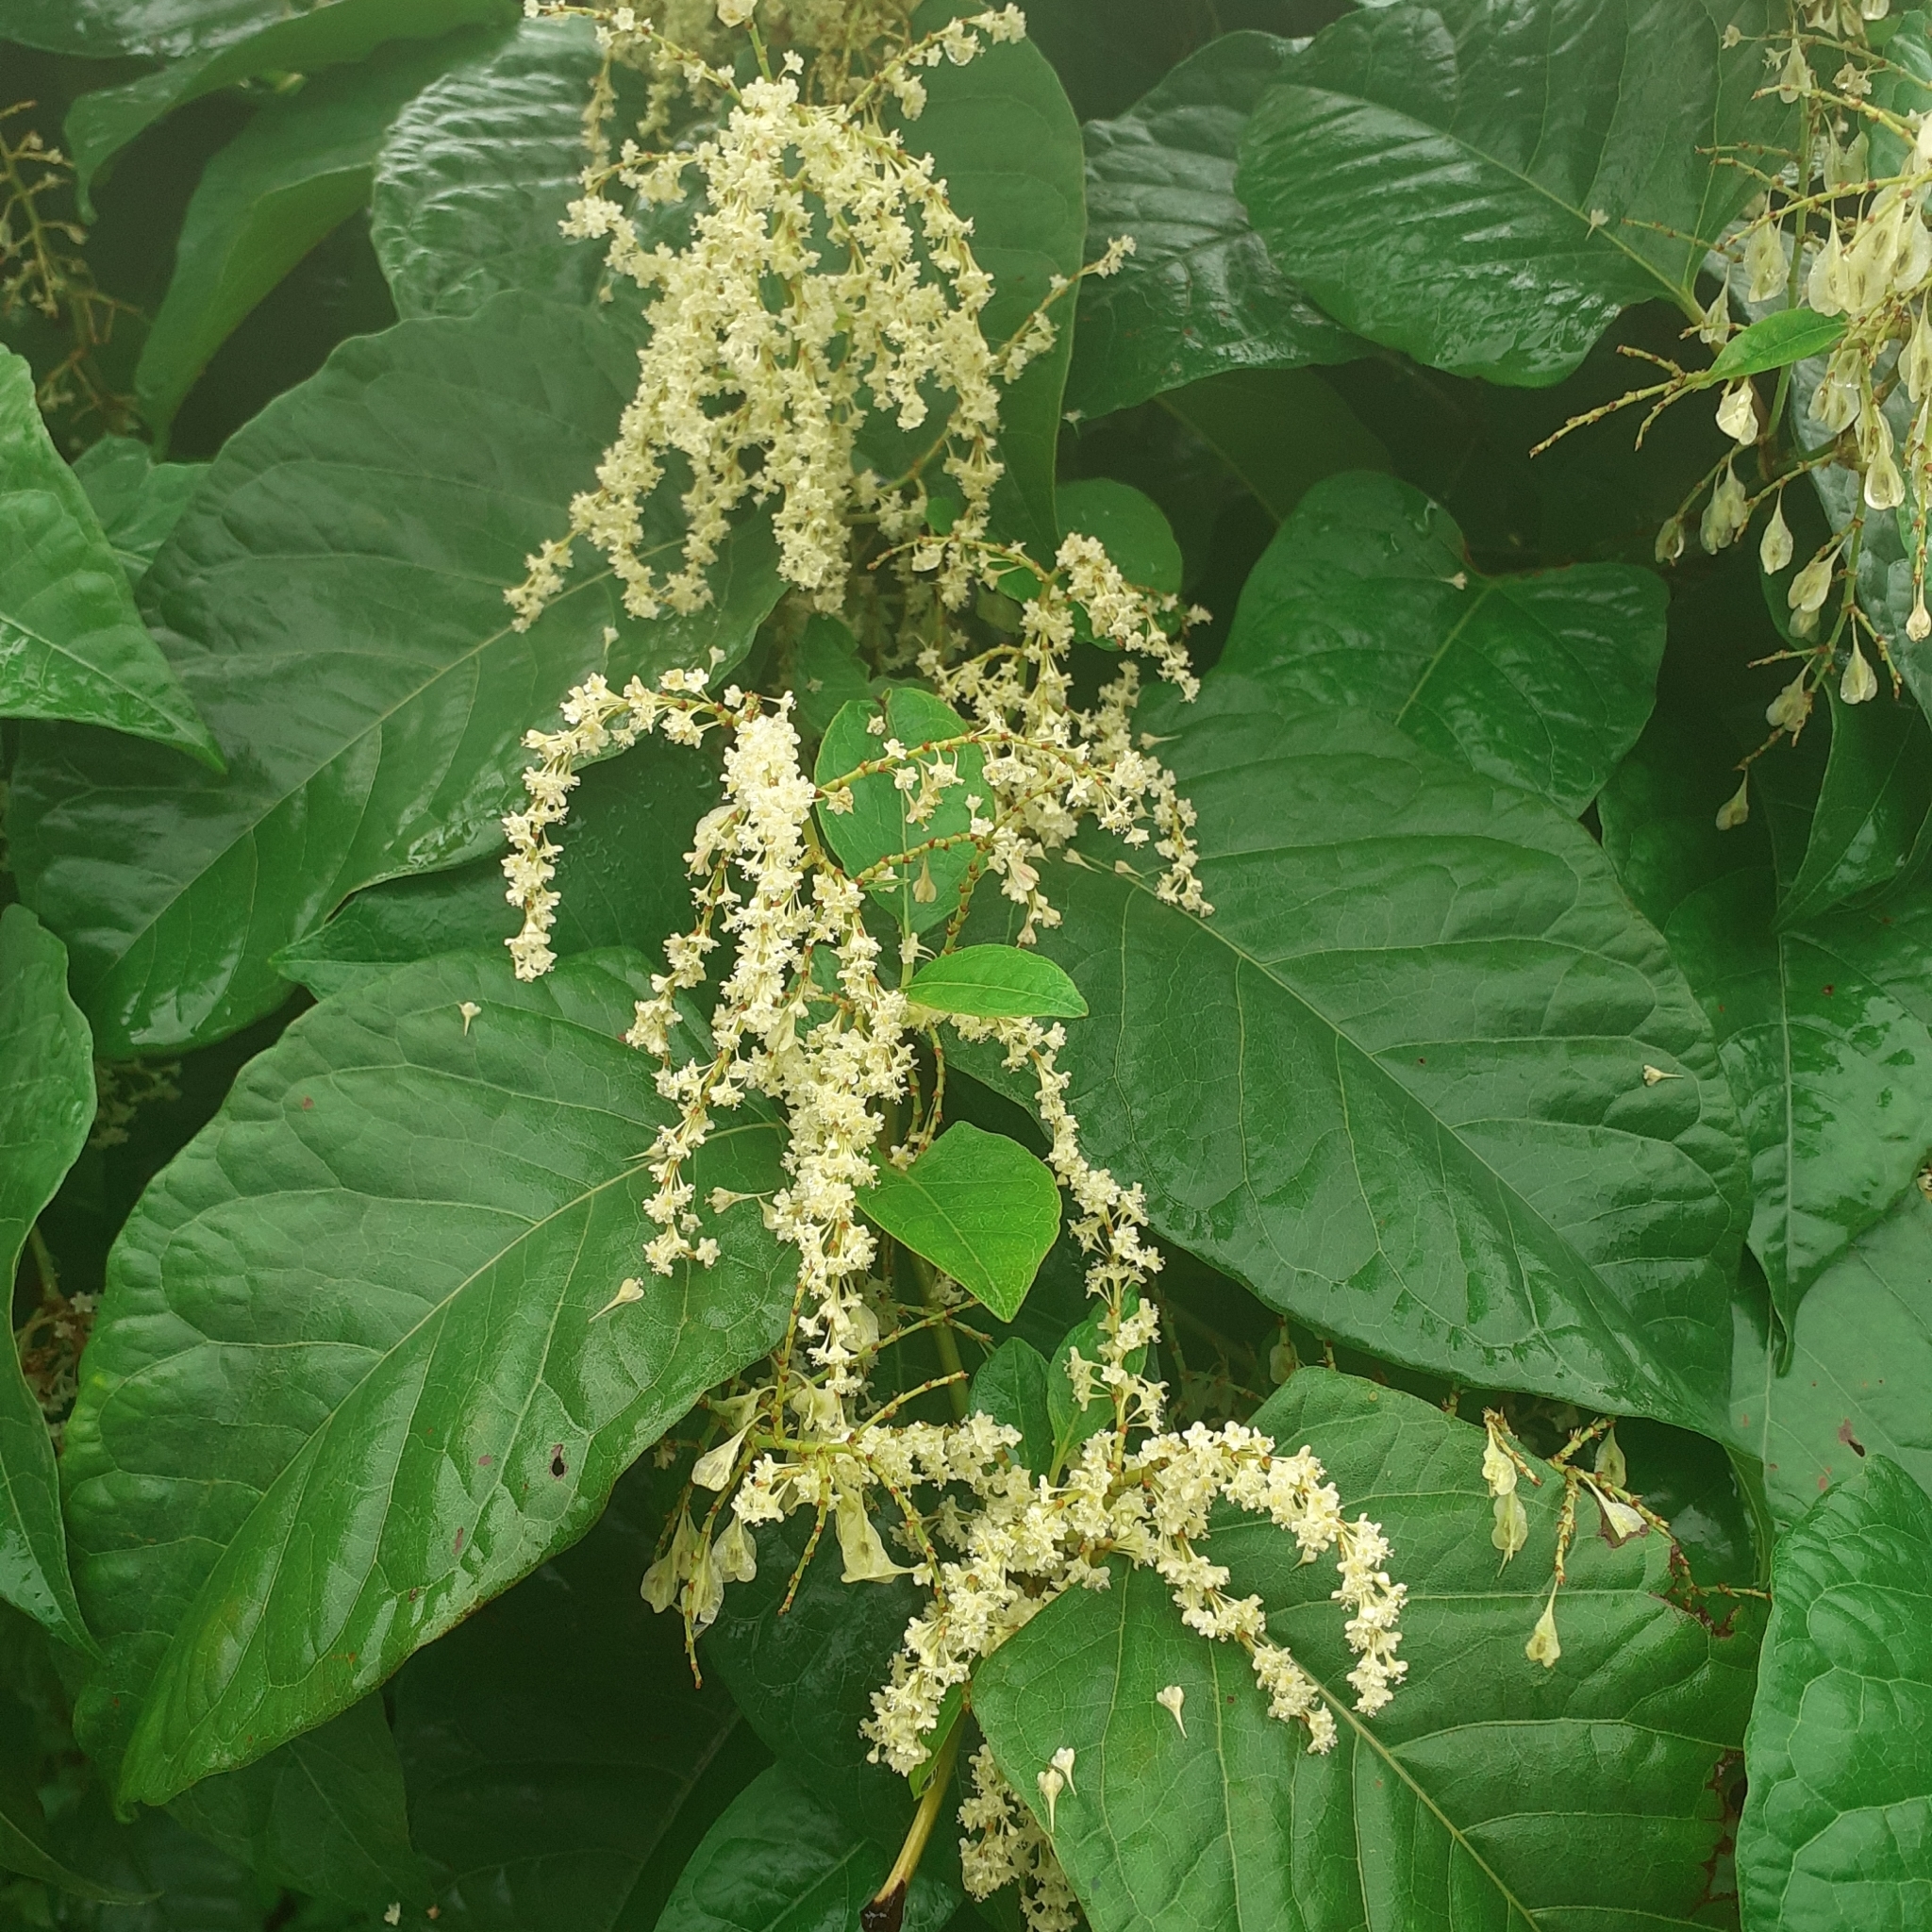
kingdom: Plantae
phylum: Tracheophyta
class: Magnoliopsida
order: Caryophyllales
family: Polygonaceae
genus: Reynoutria
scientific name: Reynoutria japonica
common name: Japanese knotweed
